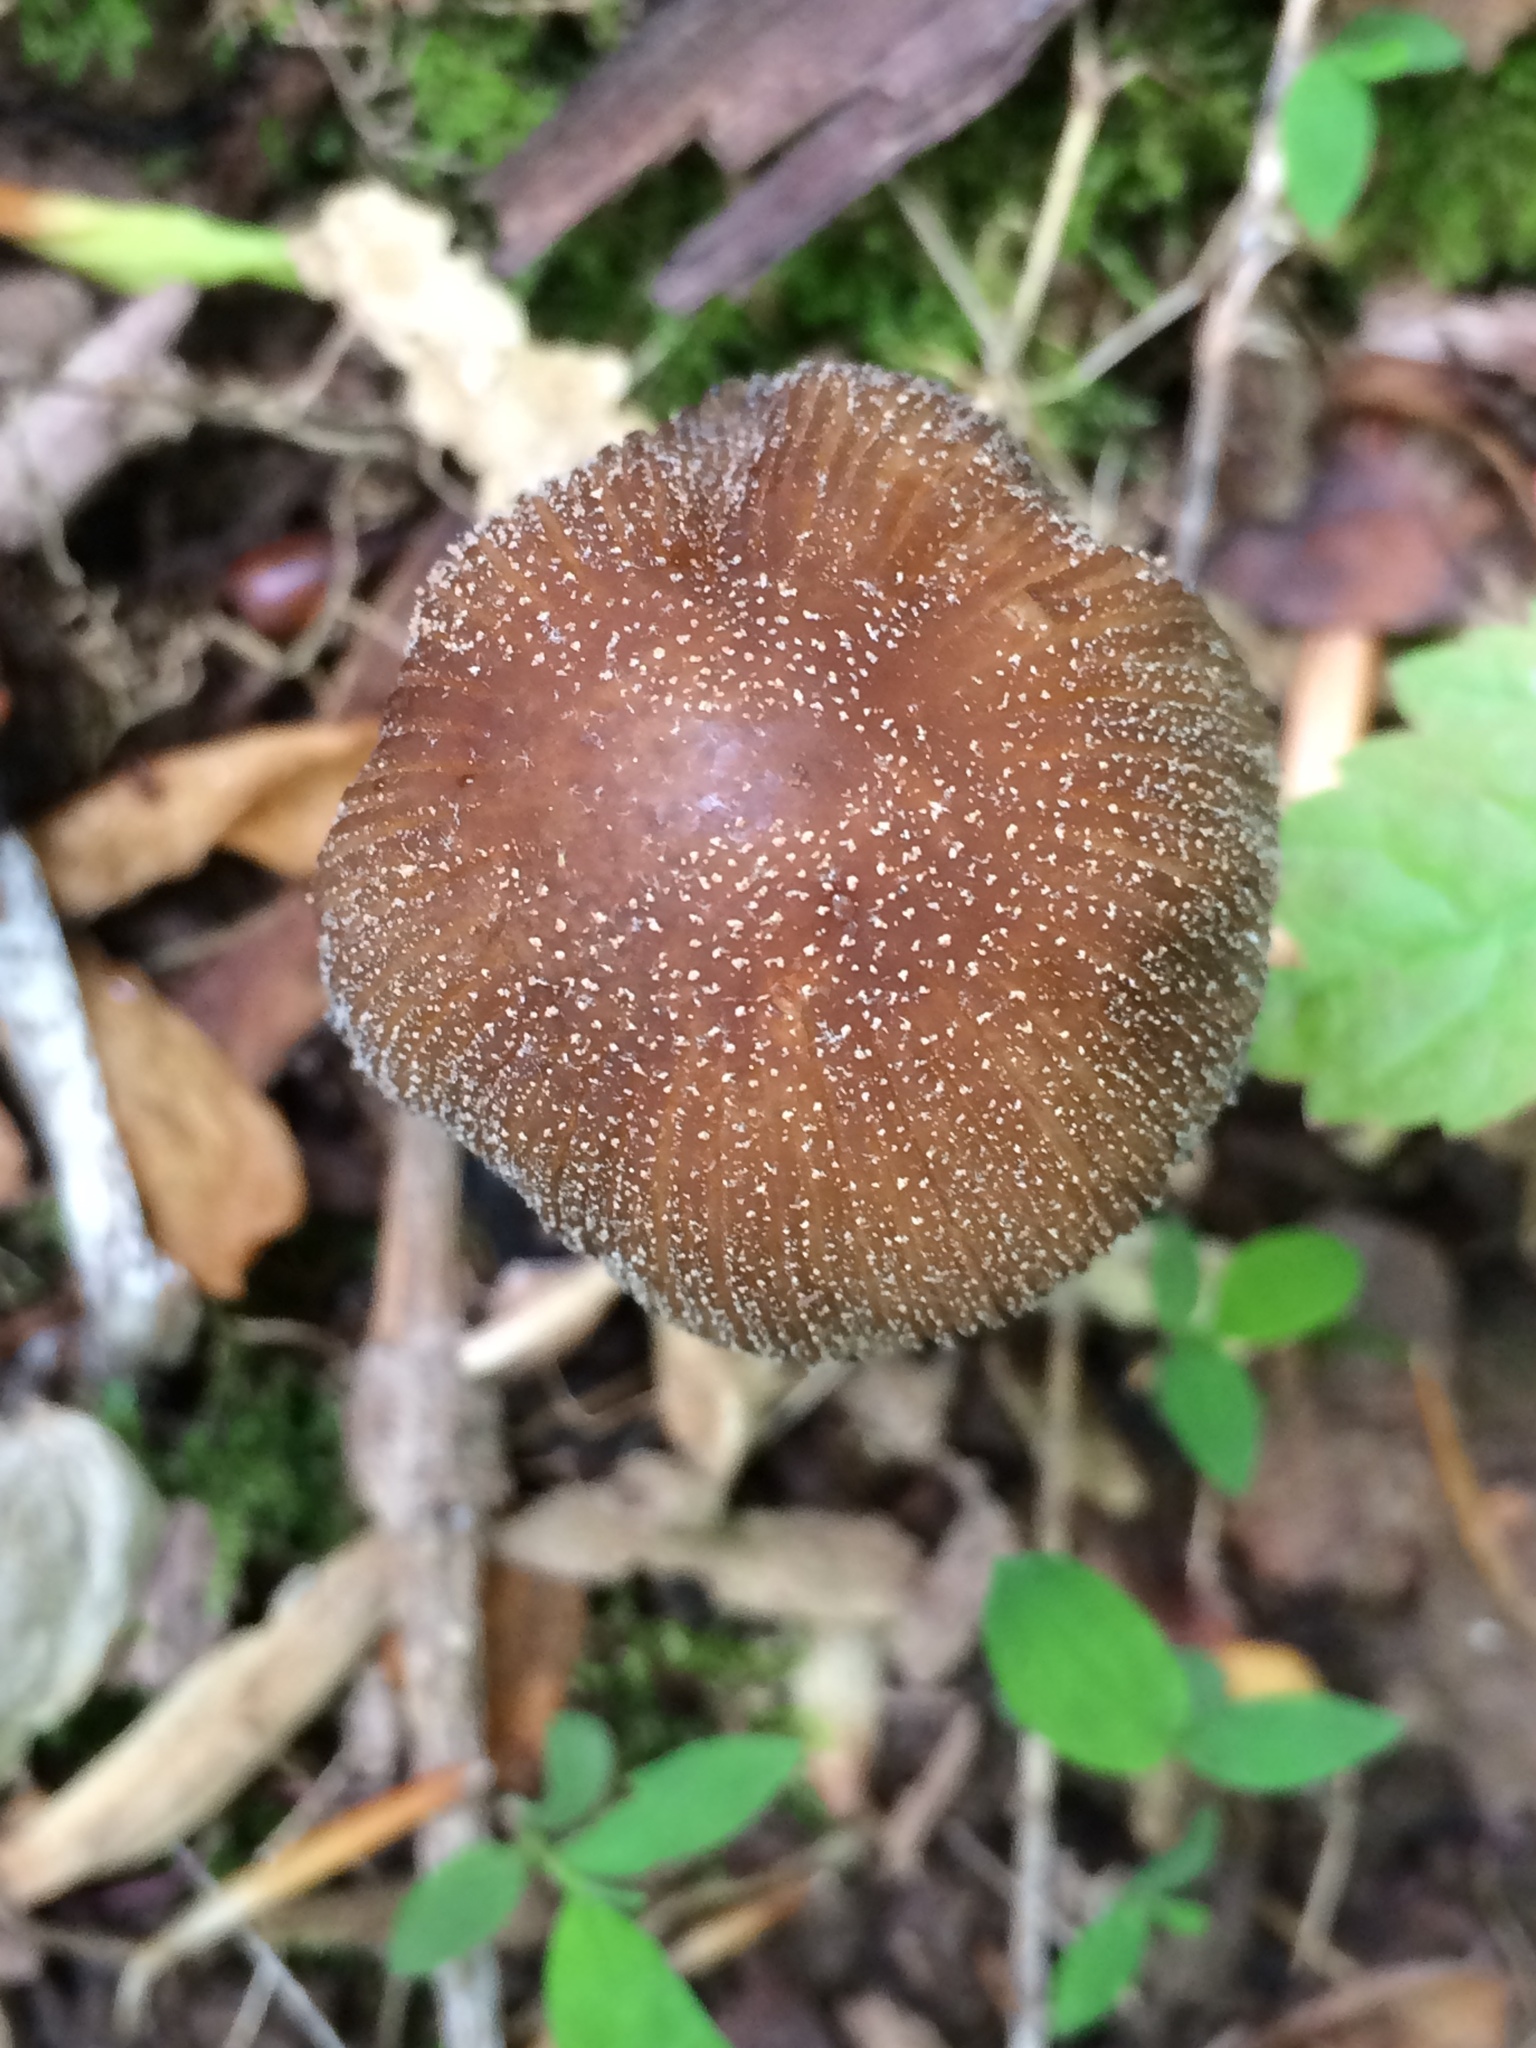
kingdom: Fungi
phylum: Basidiomycota
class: Agaricomycetes
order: Agaricales
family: Psathyrellaceae
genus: Coprinellus
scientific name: Coprinellus micaceus
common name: Glistening ink-cap
